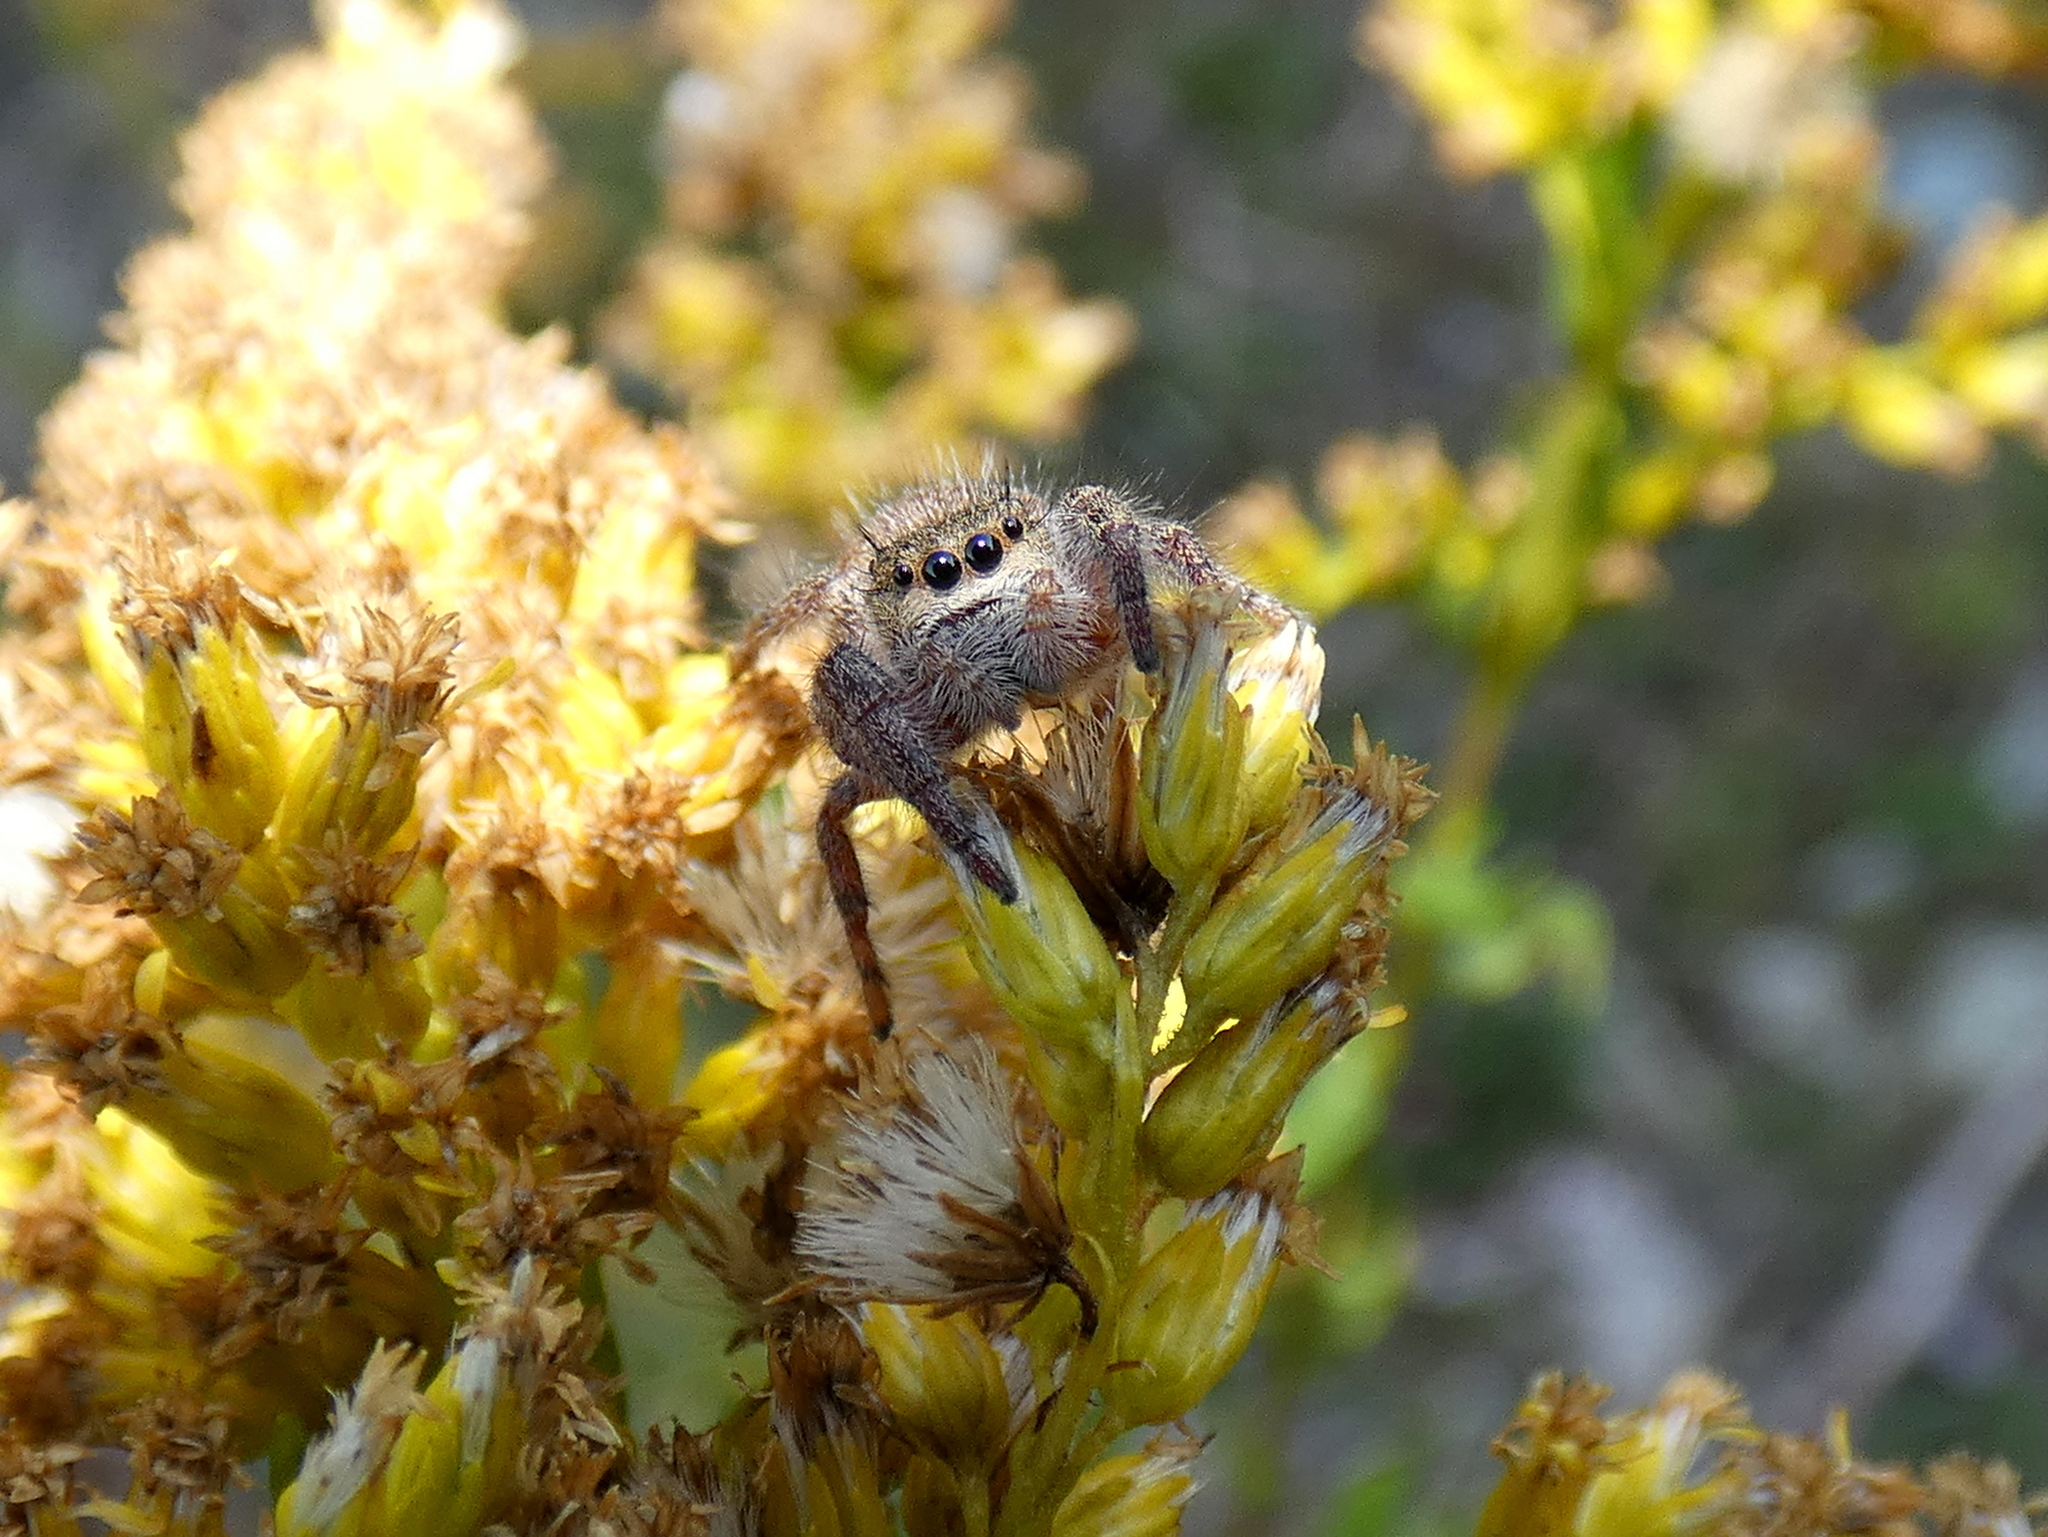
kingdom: Animalia
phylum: Arthropoda
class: Arachnida
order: Araneae
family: Salticidae
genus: Phidippus
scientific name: Phidippus princeps
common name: Grayish jumping spider
